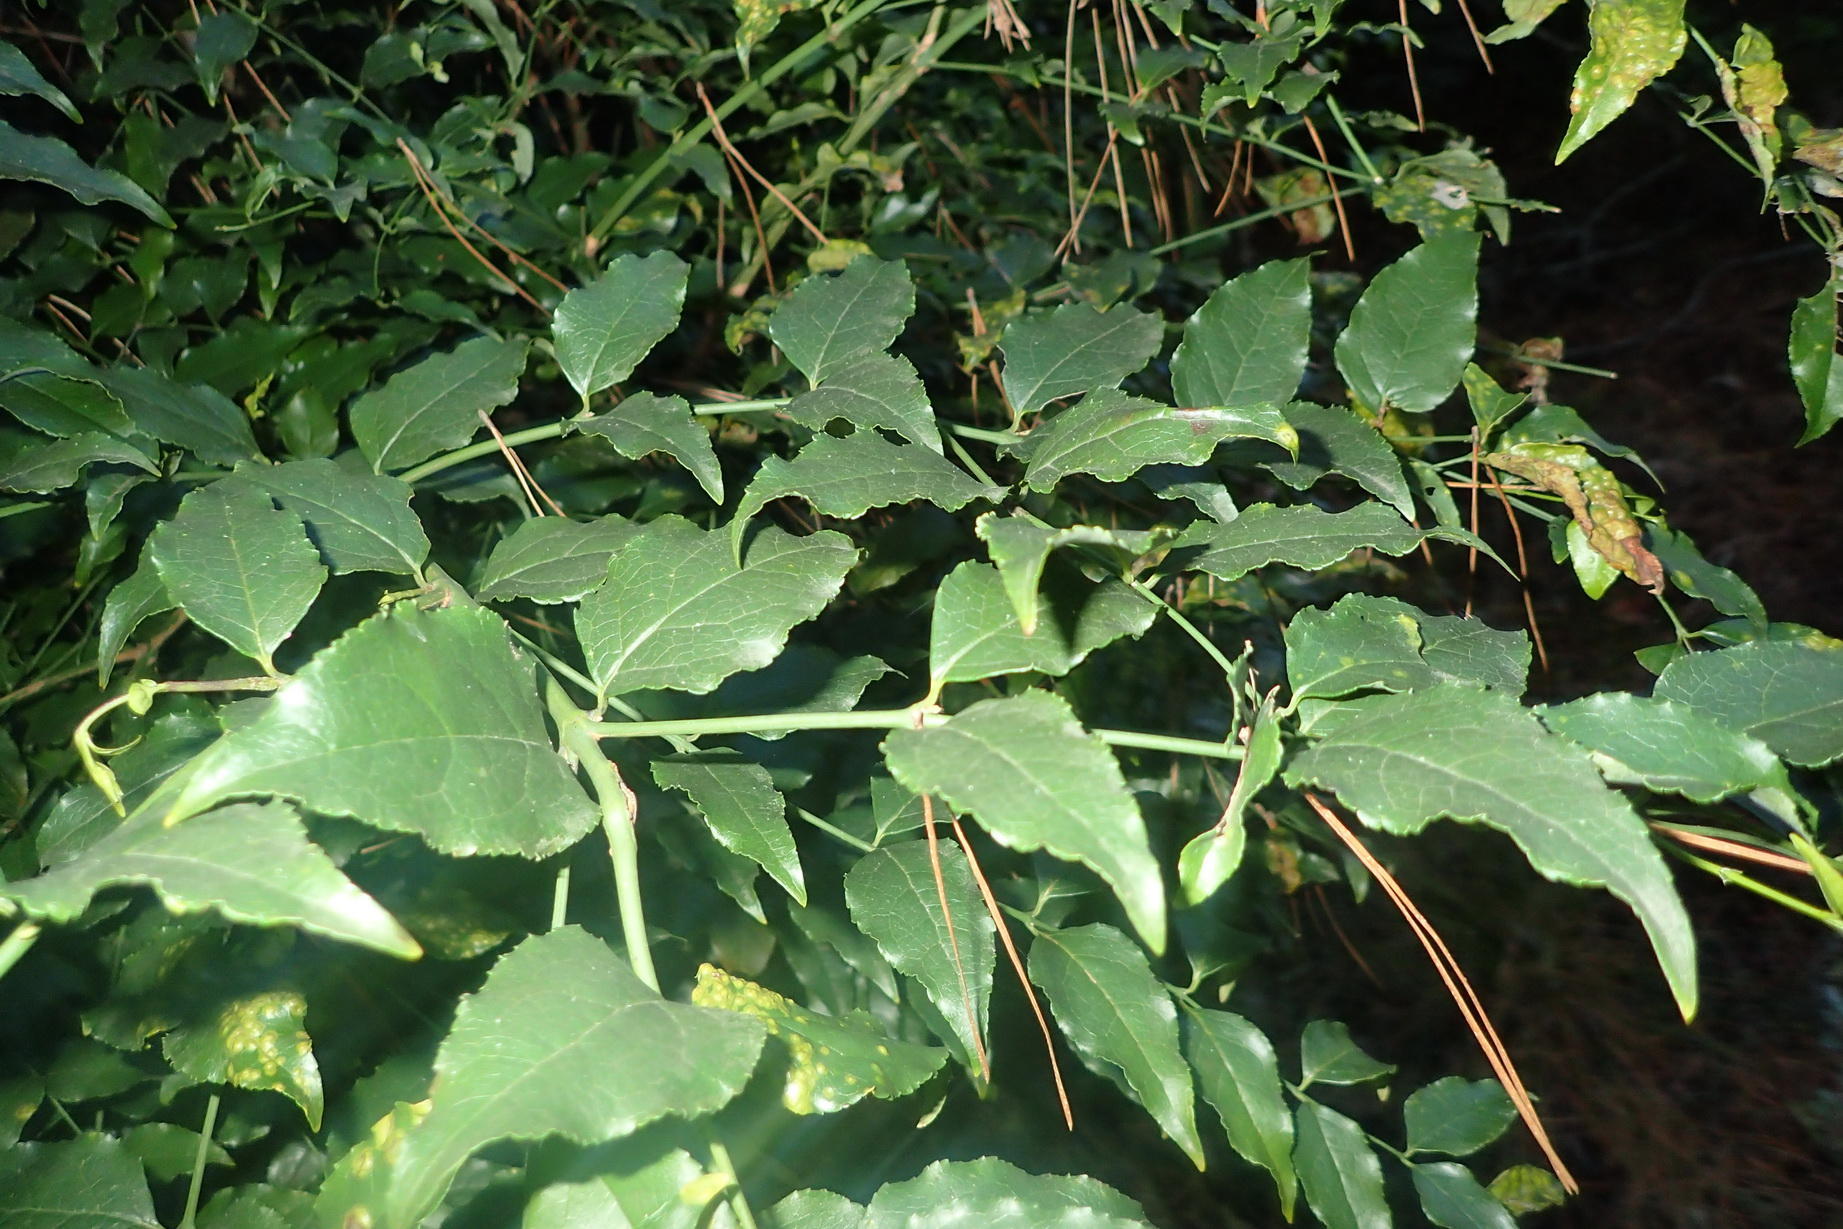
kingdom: Plantae
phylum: Tracheophyta
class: Magnoliopsida
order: Lamiales
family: Stilbaceae
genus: Halleria
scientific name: Halleria lucida
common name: Tree fuschia
